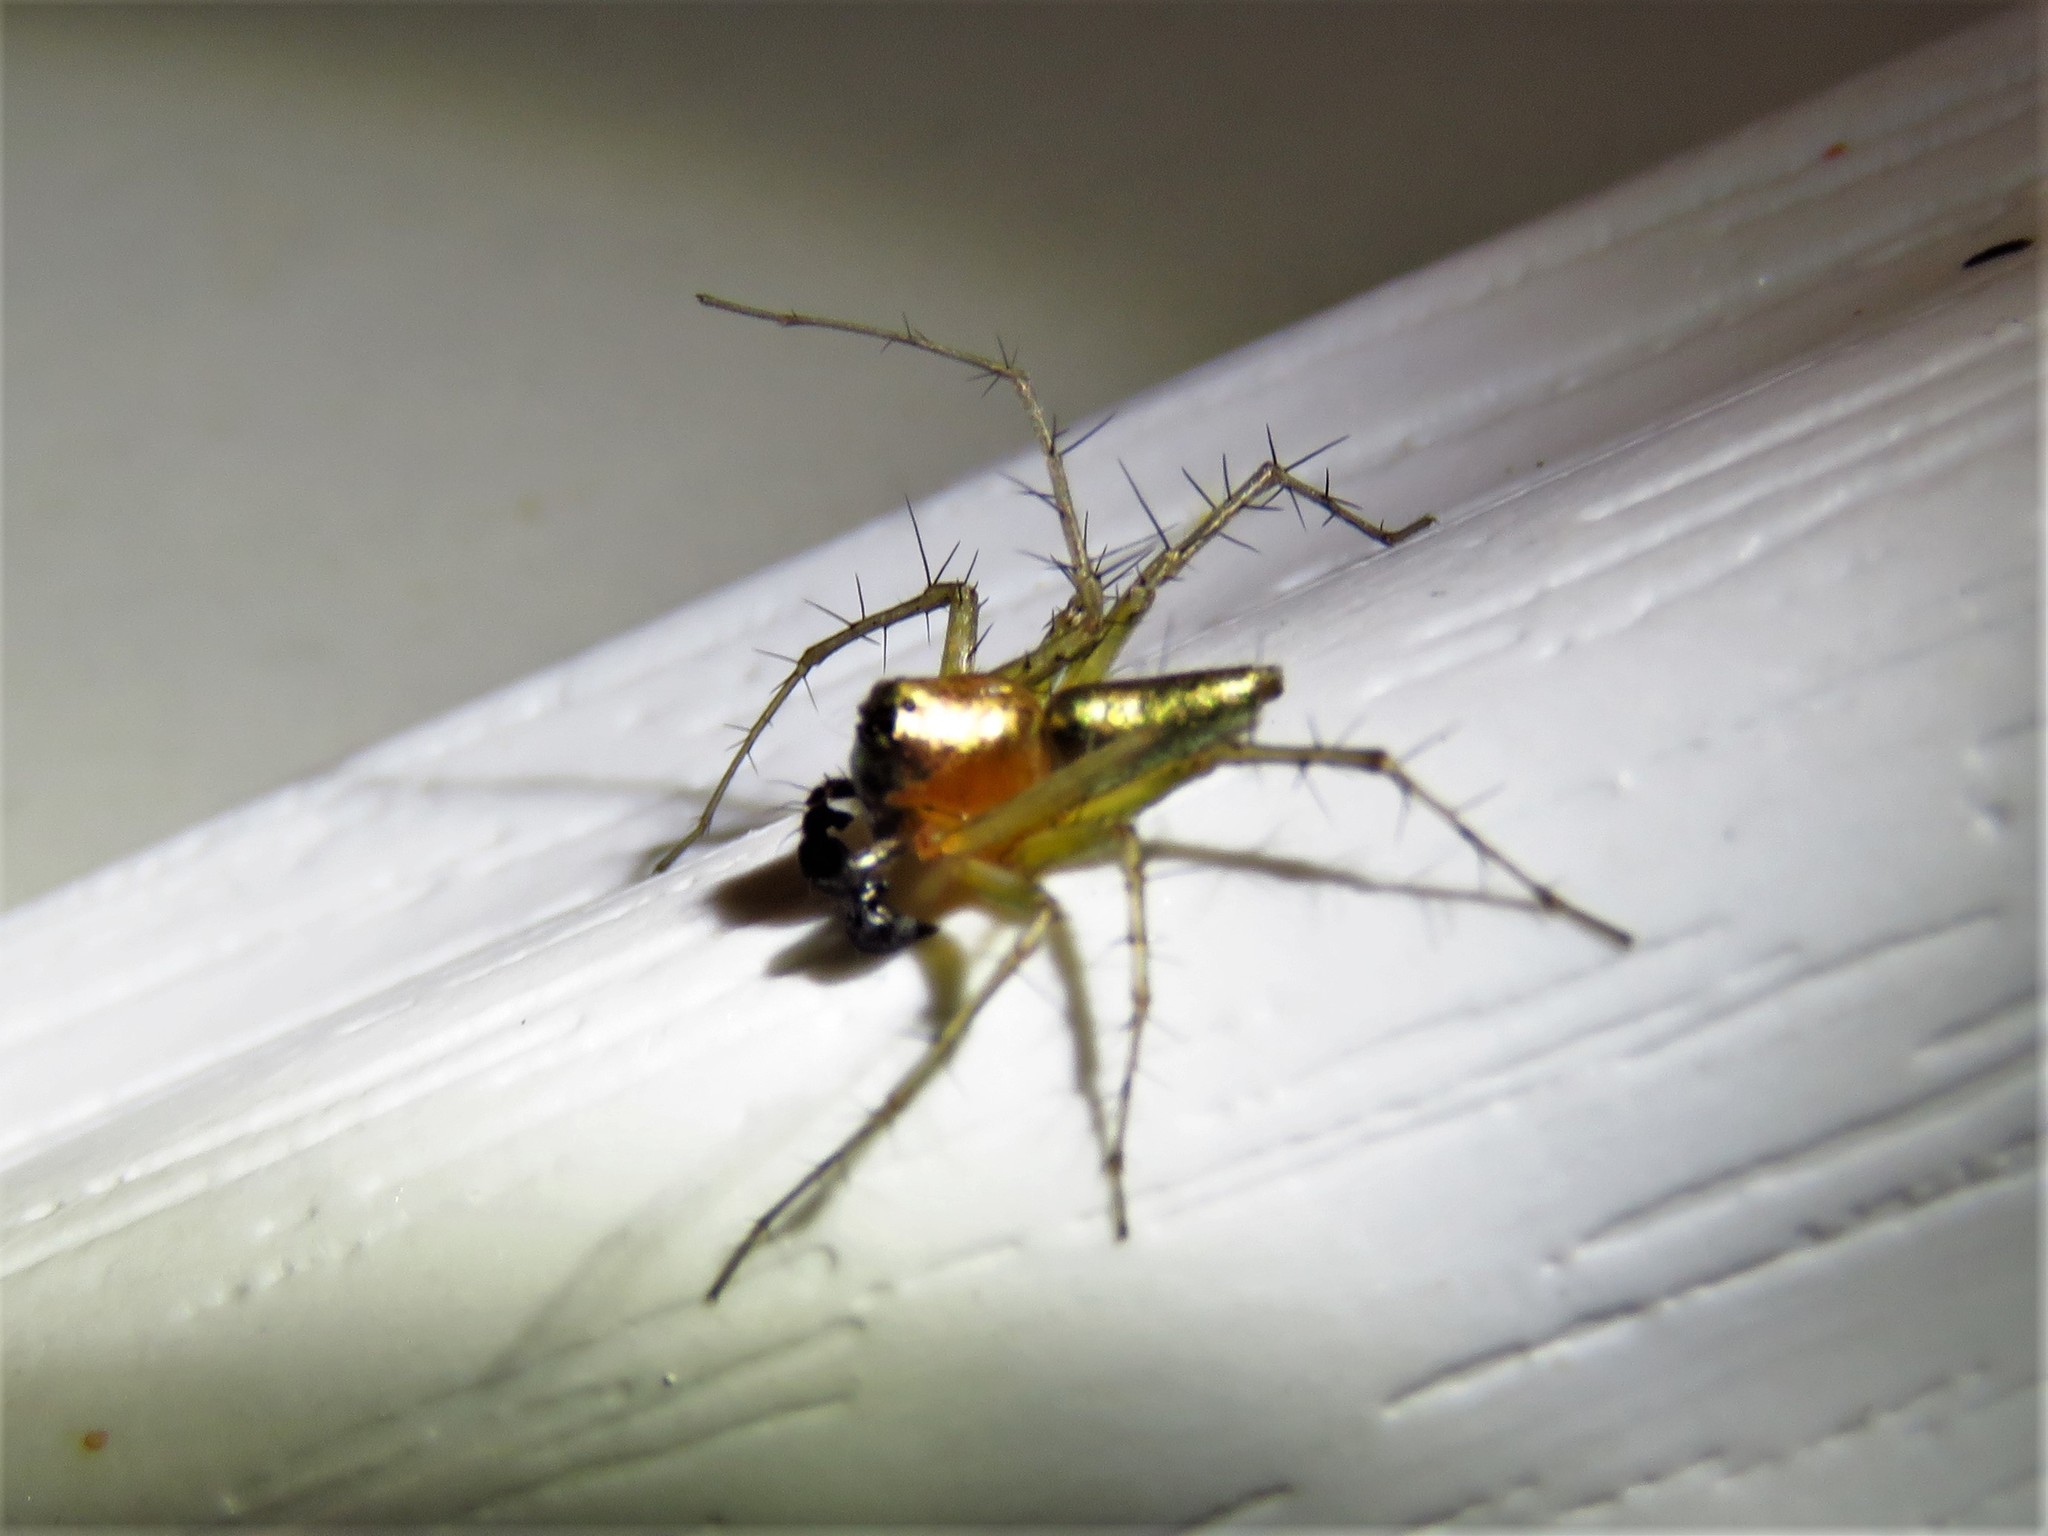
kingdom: Animalia
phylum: Arthropoda
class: Arachnida
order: Araneae
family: Oxyopidae
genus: Oxyopes
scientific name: Oxyopes salticus
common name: Lynx spiders
